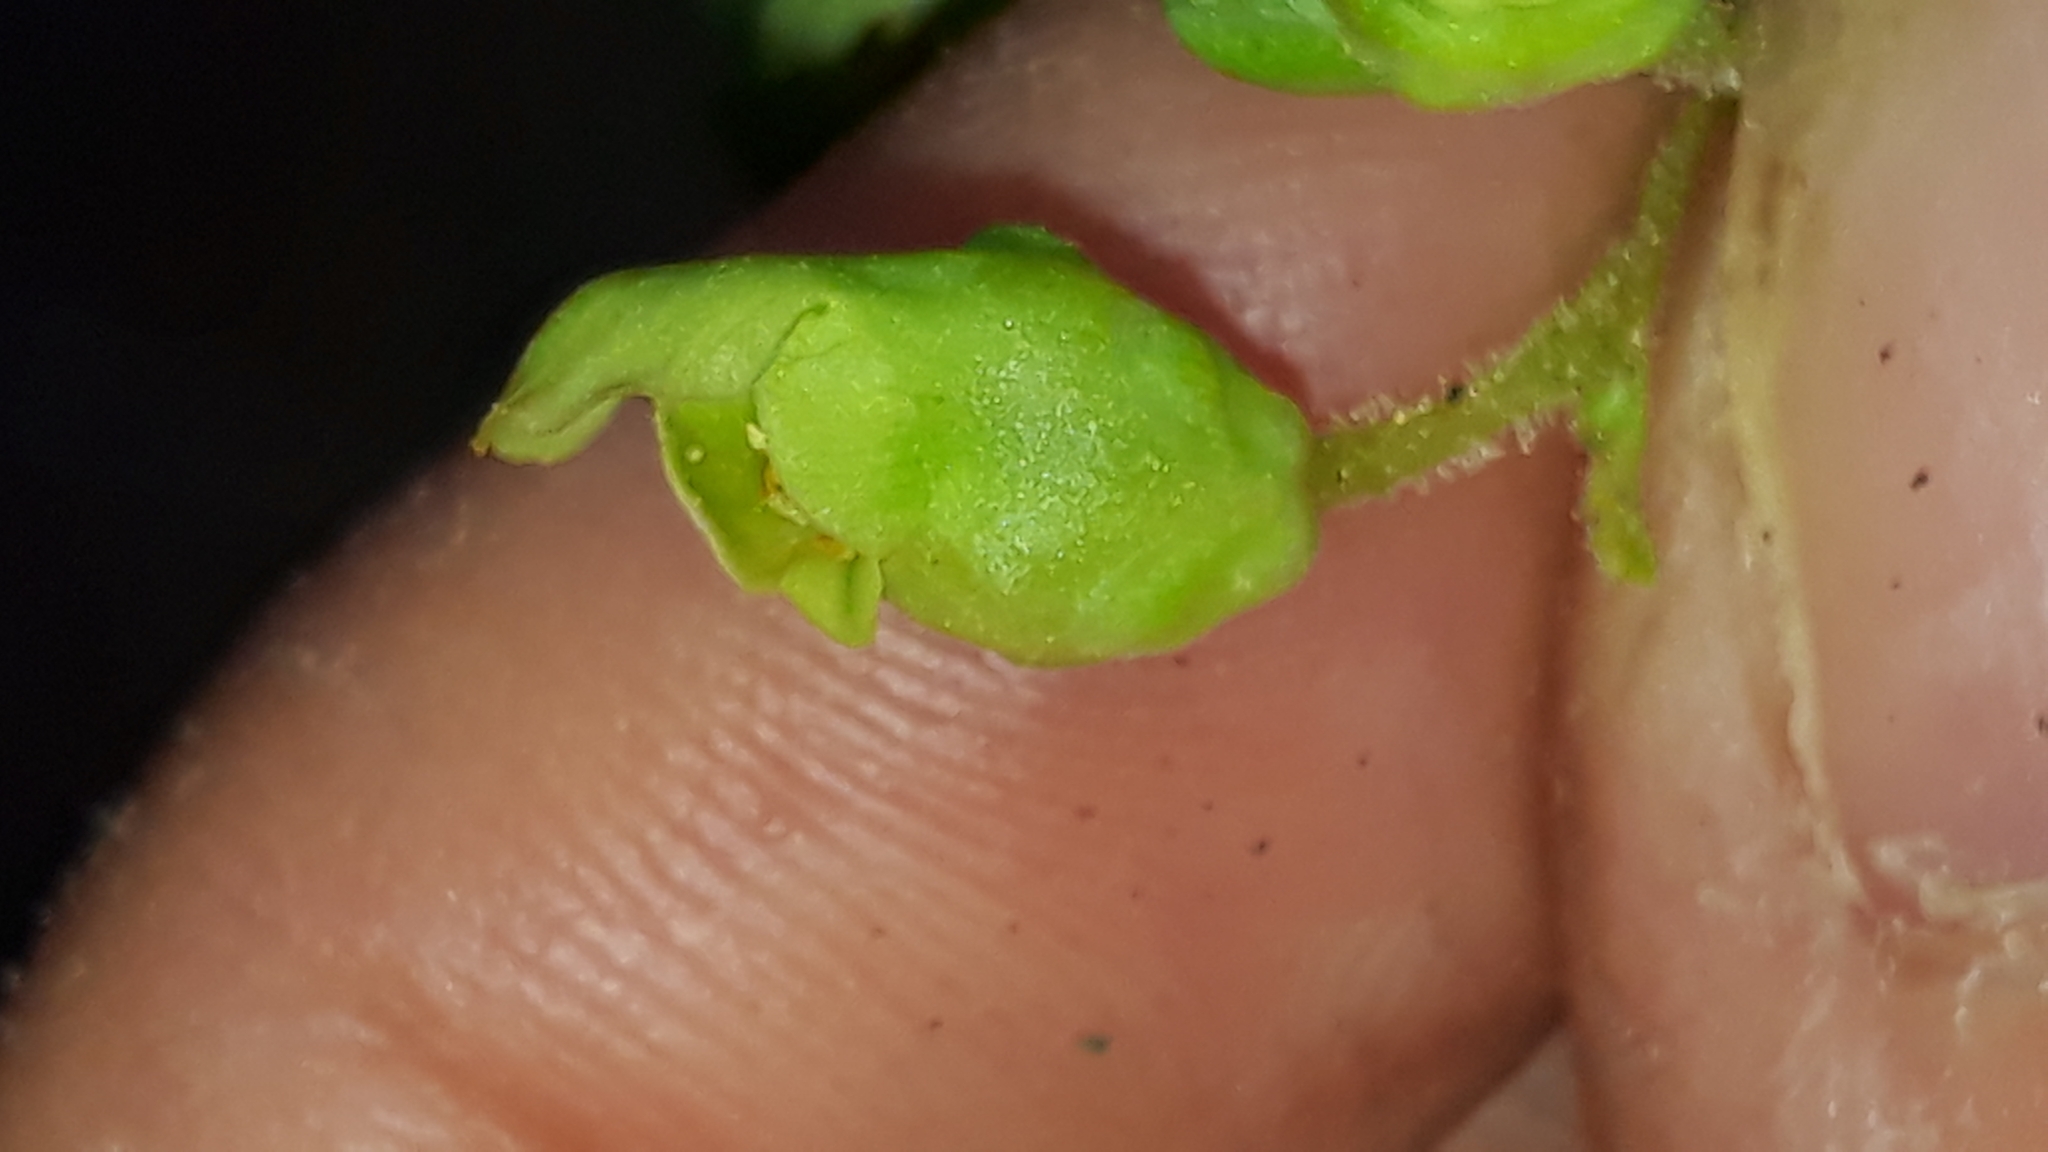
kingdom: Plantae
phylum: Tracheophyta
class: Magnoliopsida
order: Lamiales
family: Scrophulariaceae
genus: Scrophularia
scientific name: Scrophularia smithii
